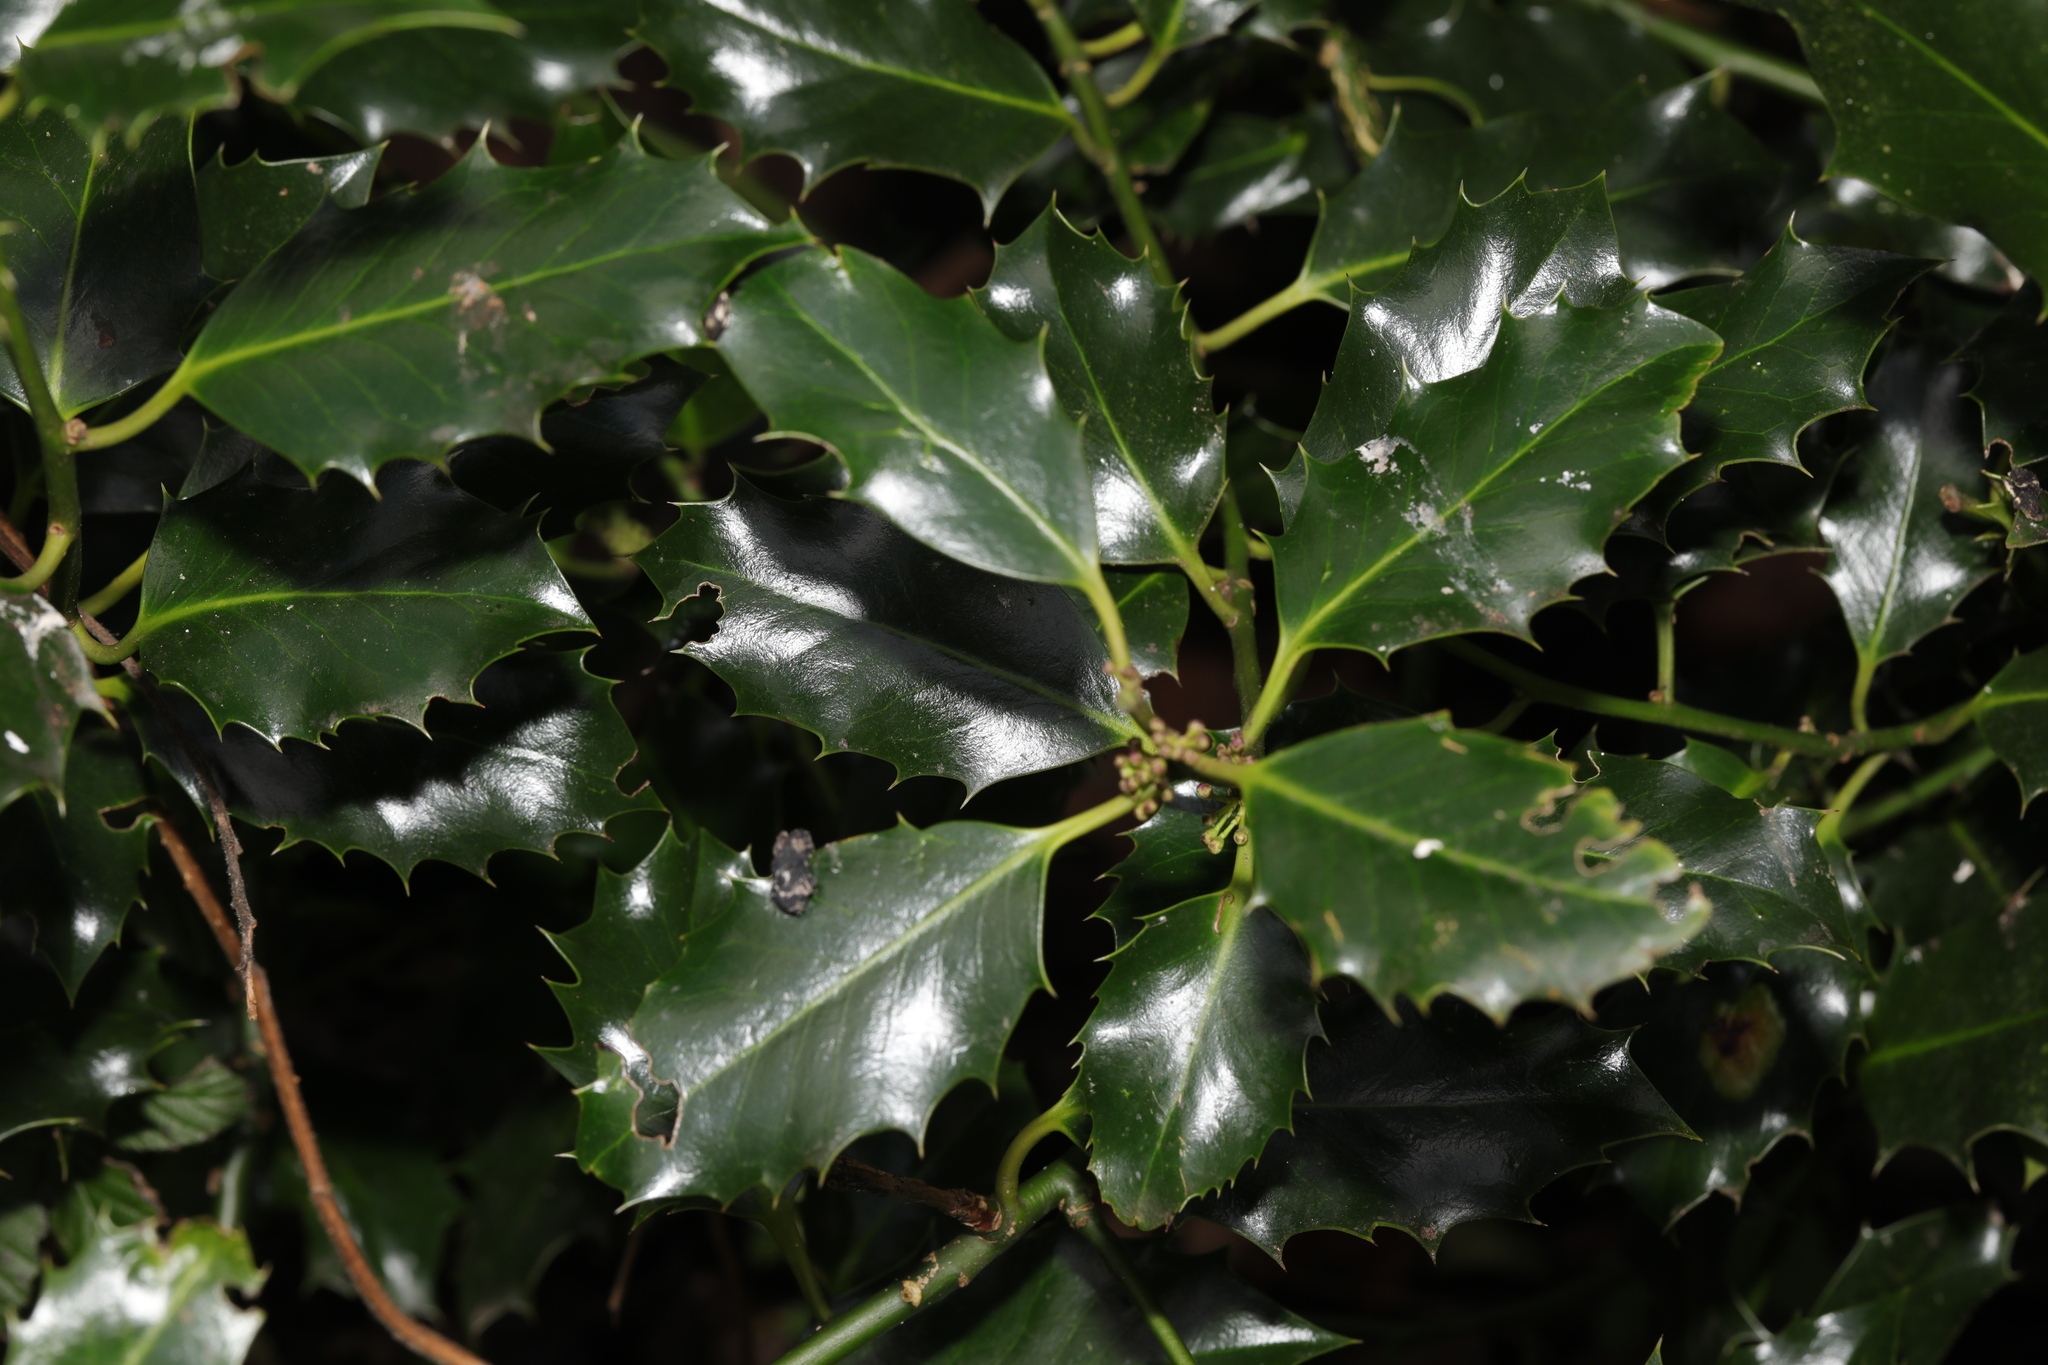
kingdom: Plantae
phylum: Tracheophyta
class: Magnoliopsida
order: Aquifoliales
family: Aquifoliaceae
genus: Ilex
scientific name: Ilex aquifolium
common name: English holly
